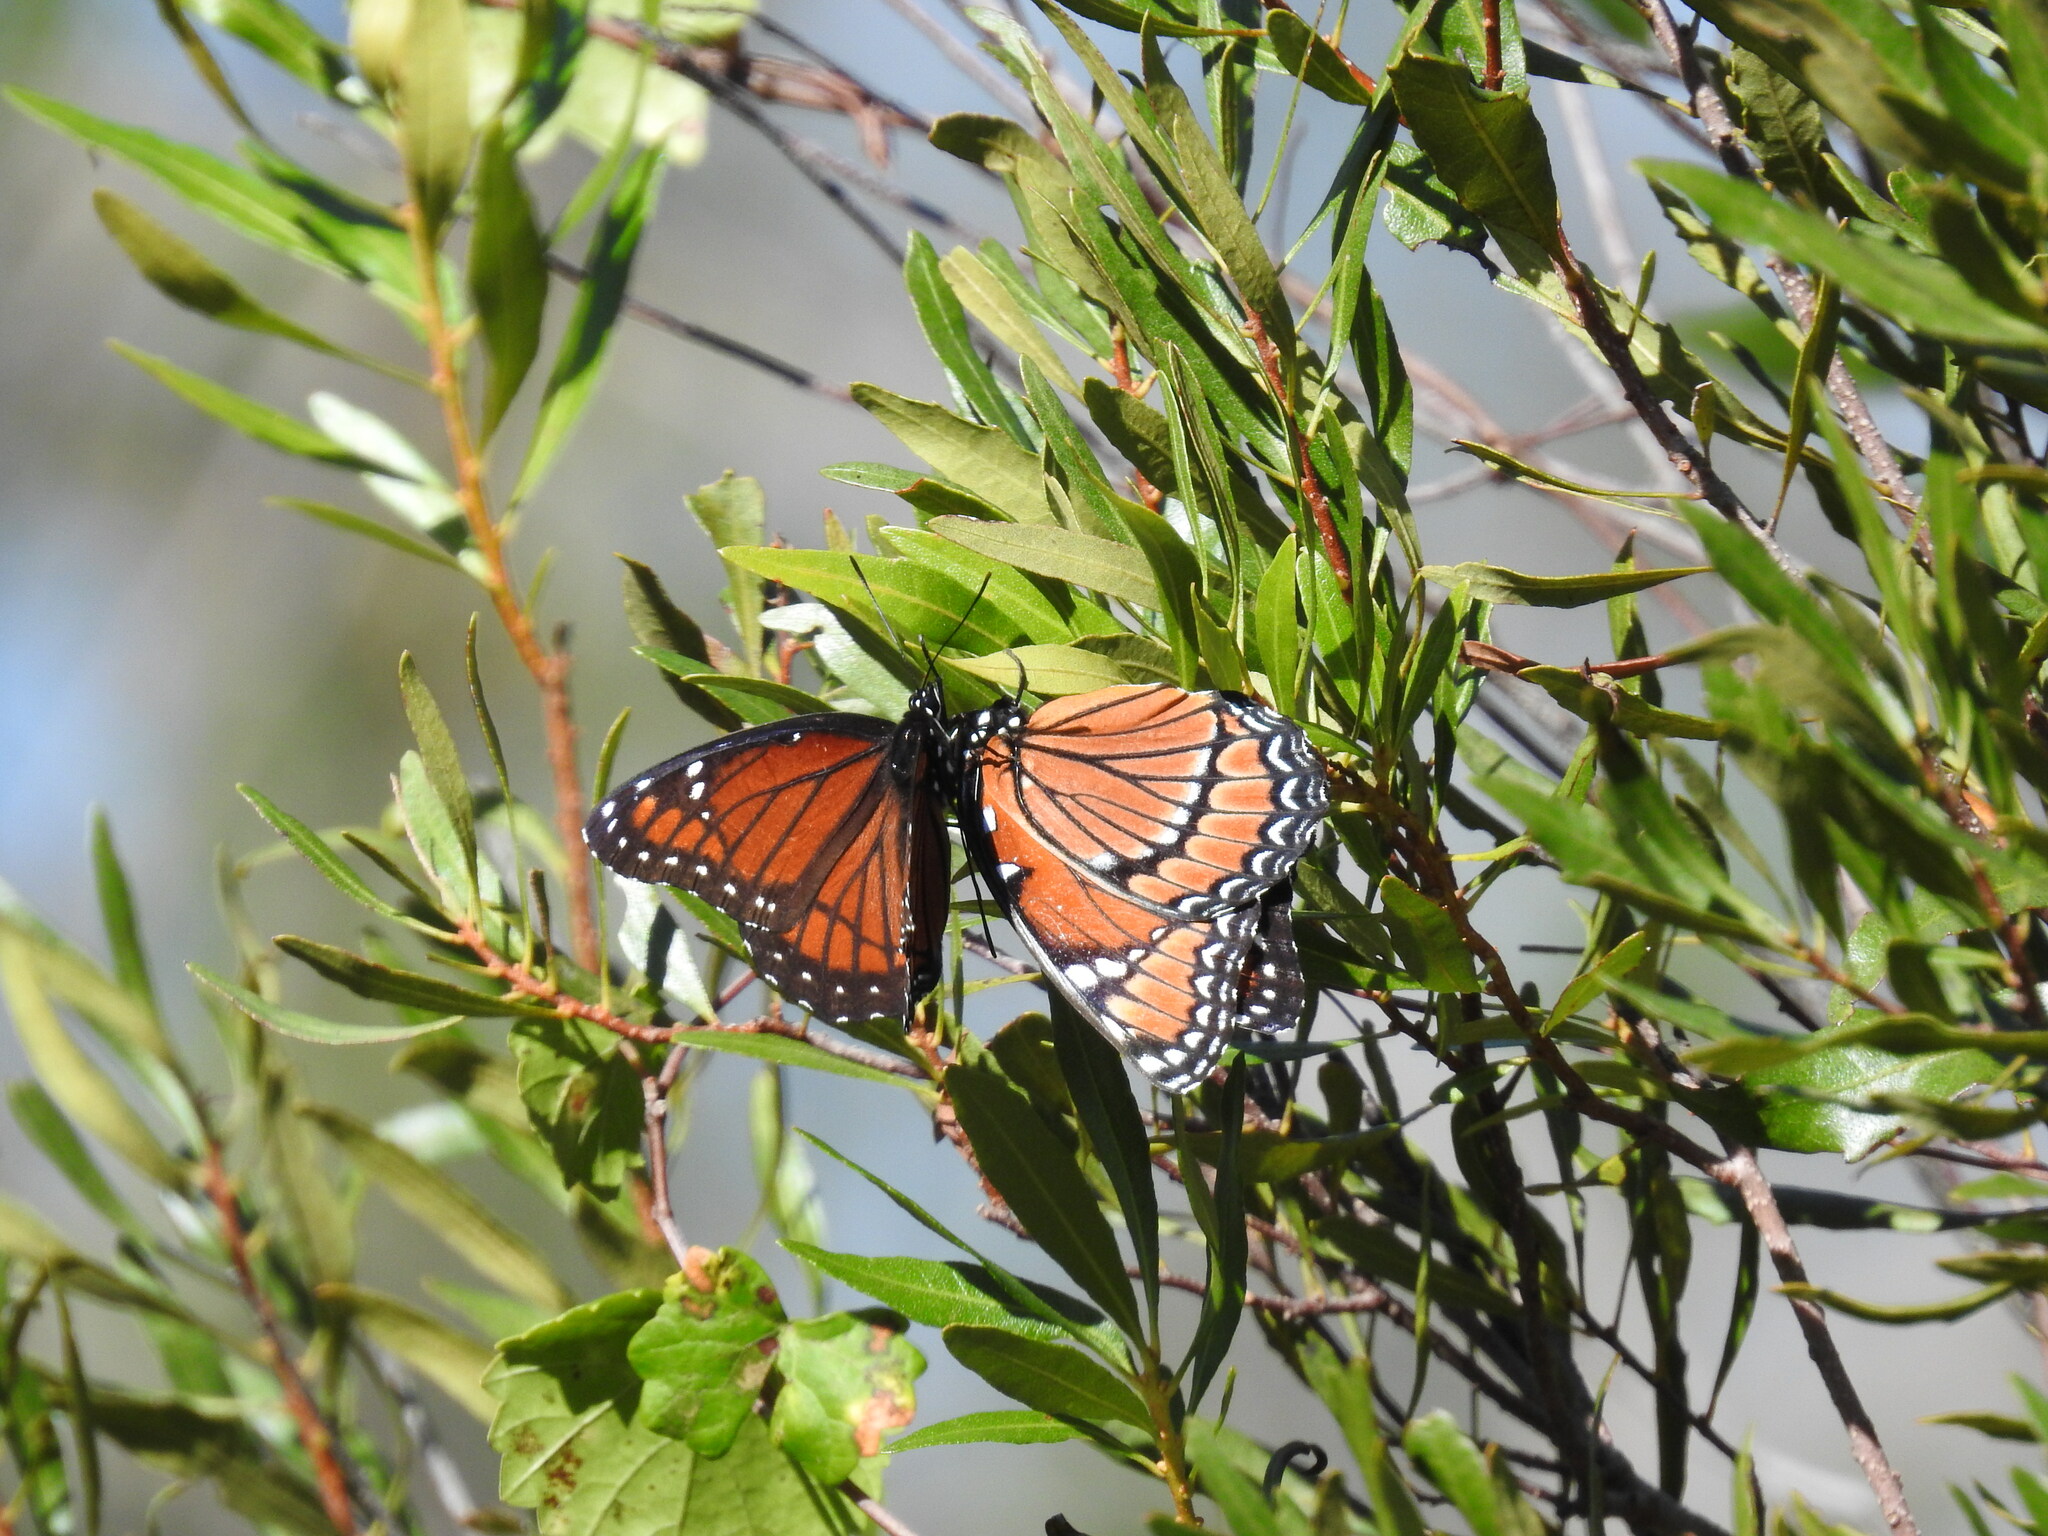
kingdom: Animalia
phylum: Arthropoda
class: Insecta
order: Lepidoptera
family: Nymphalidae
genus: Limenitis
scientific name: Limenitis archippus
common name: Viceroy
